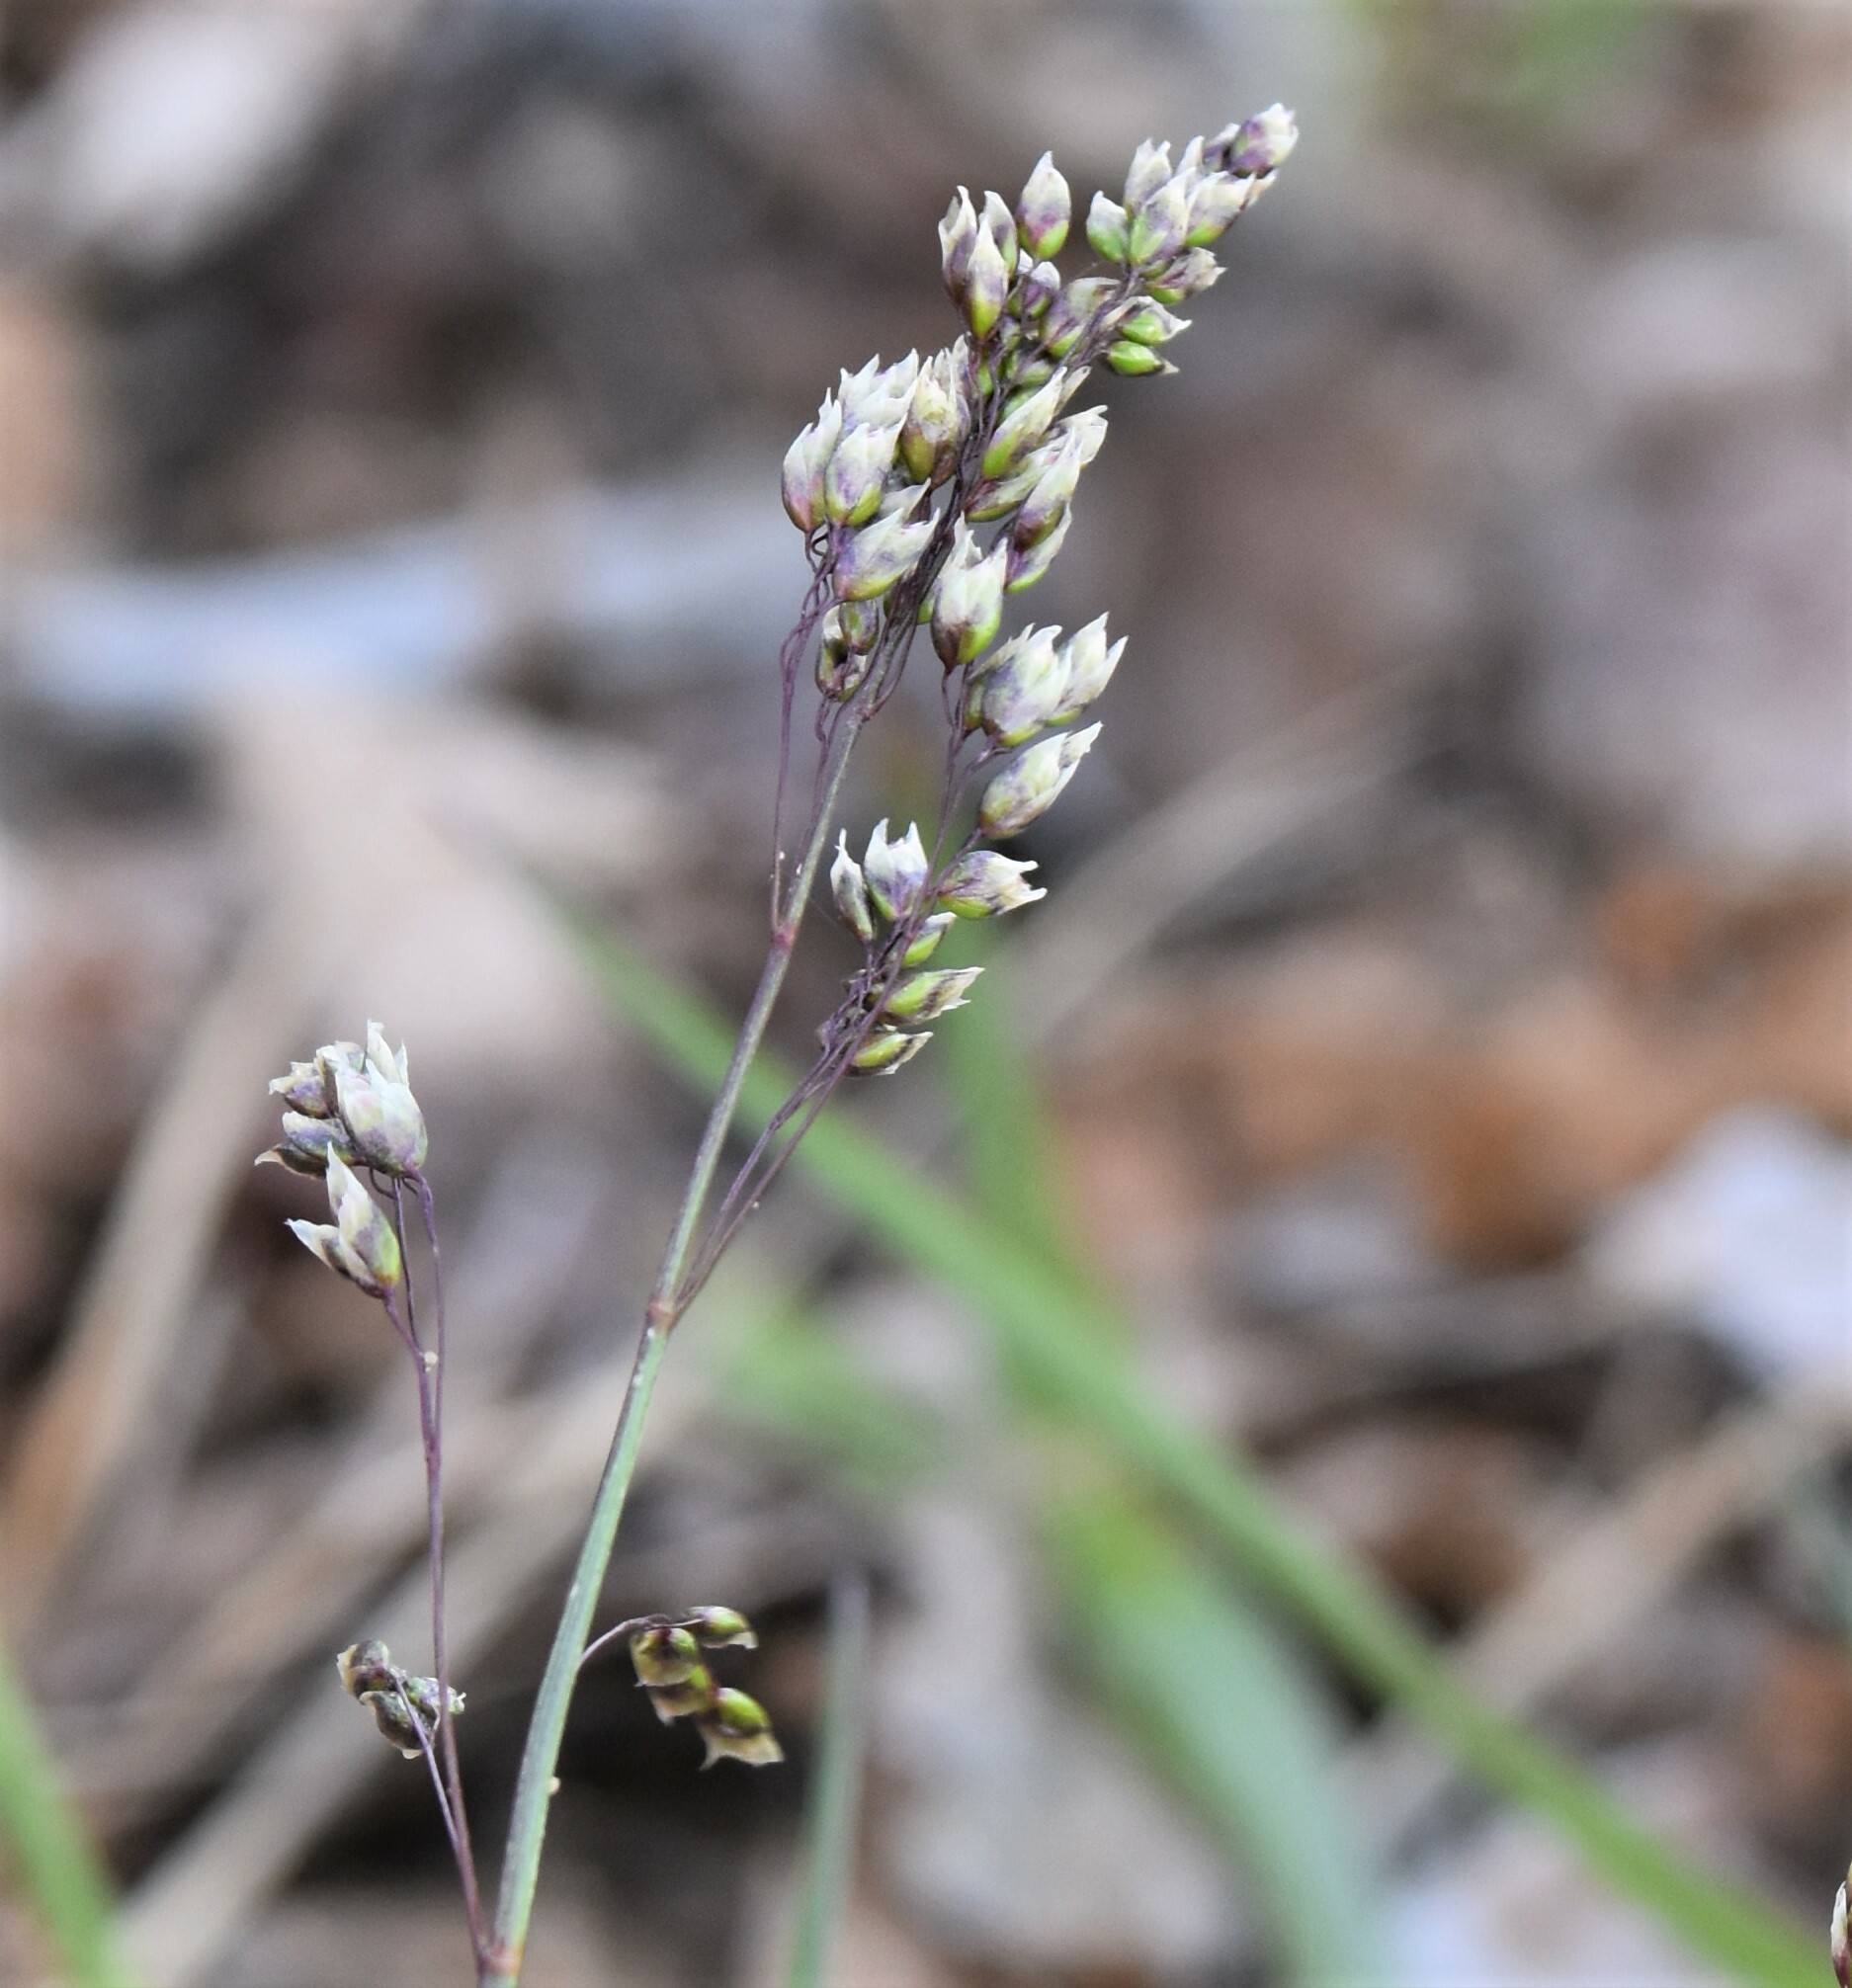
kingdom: Plantae
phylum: Tracheophyta
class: Liliopsida
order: Poales
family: Poaceae
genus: Anthoxanthum
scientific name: Anthoxanthum nitens
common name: Holy grass
